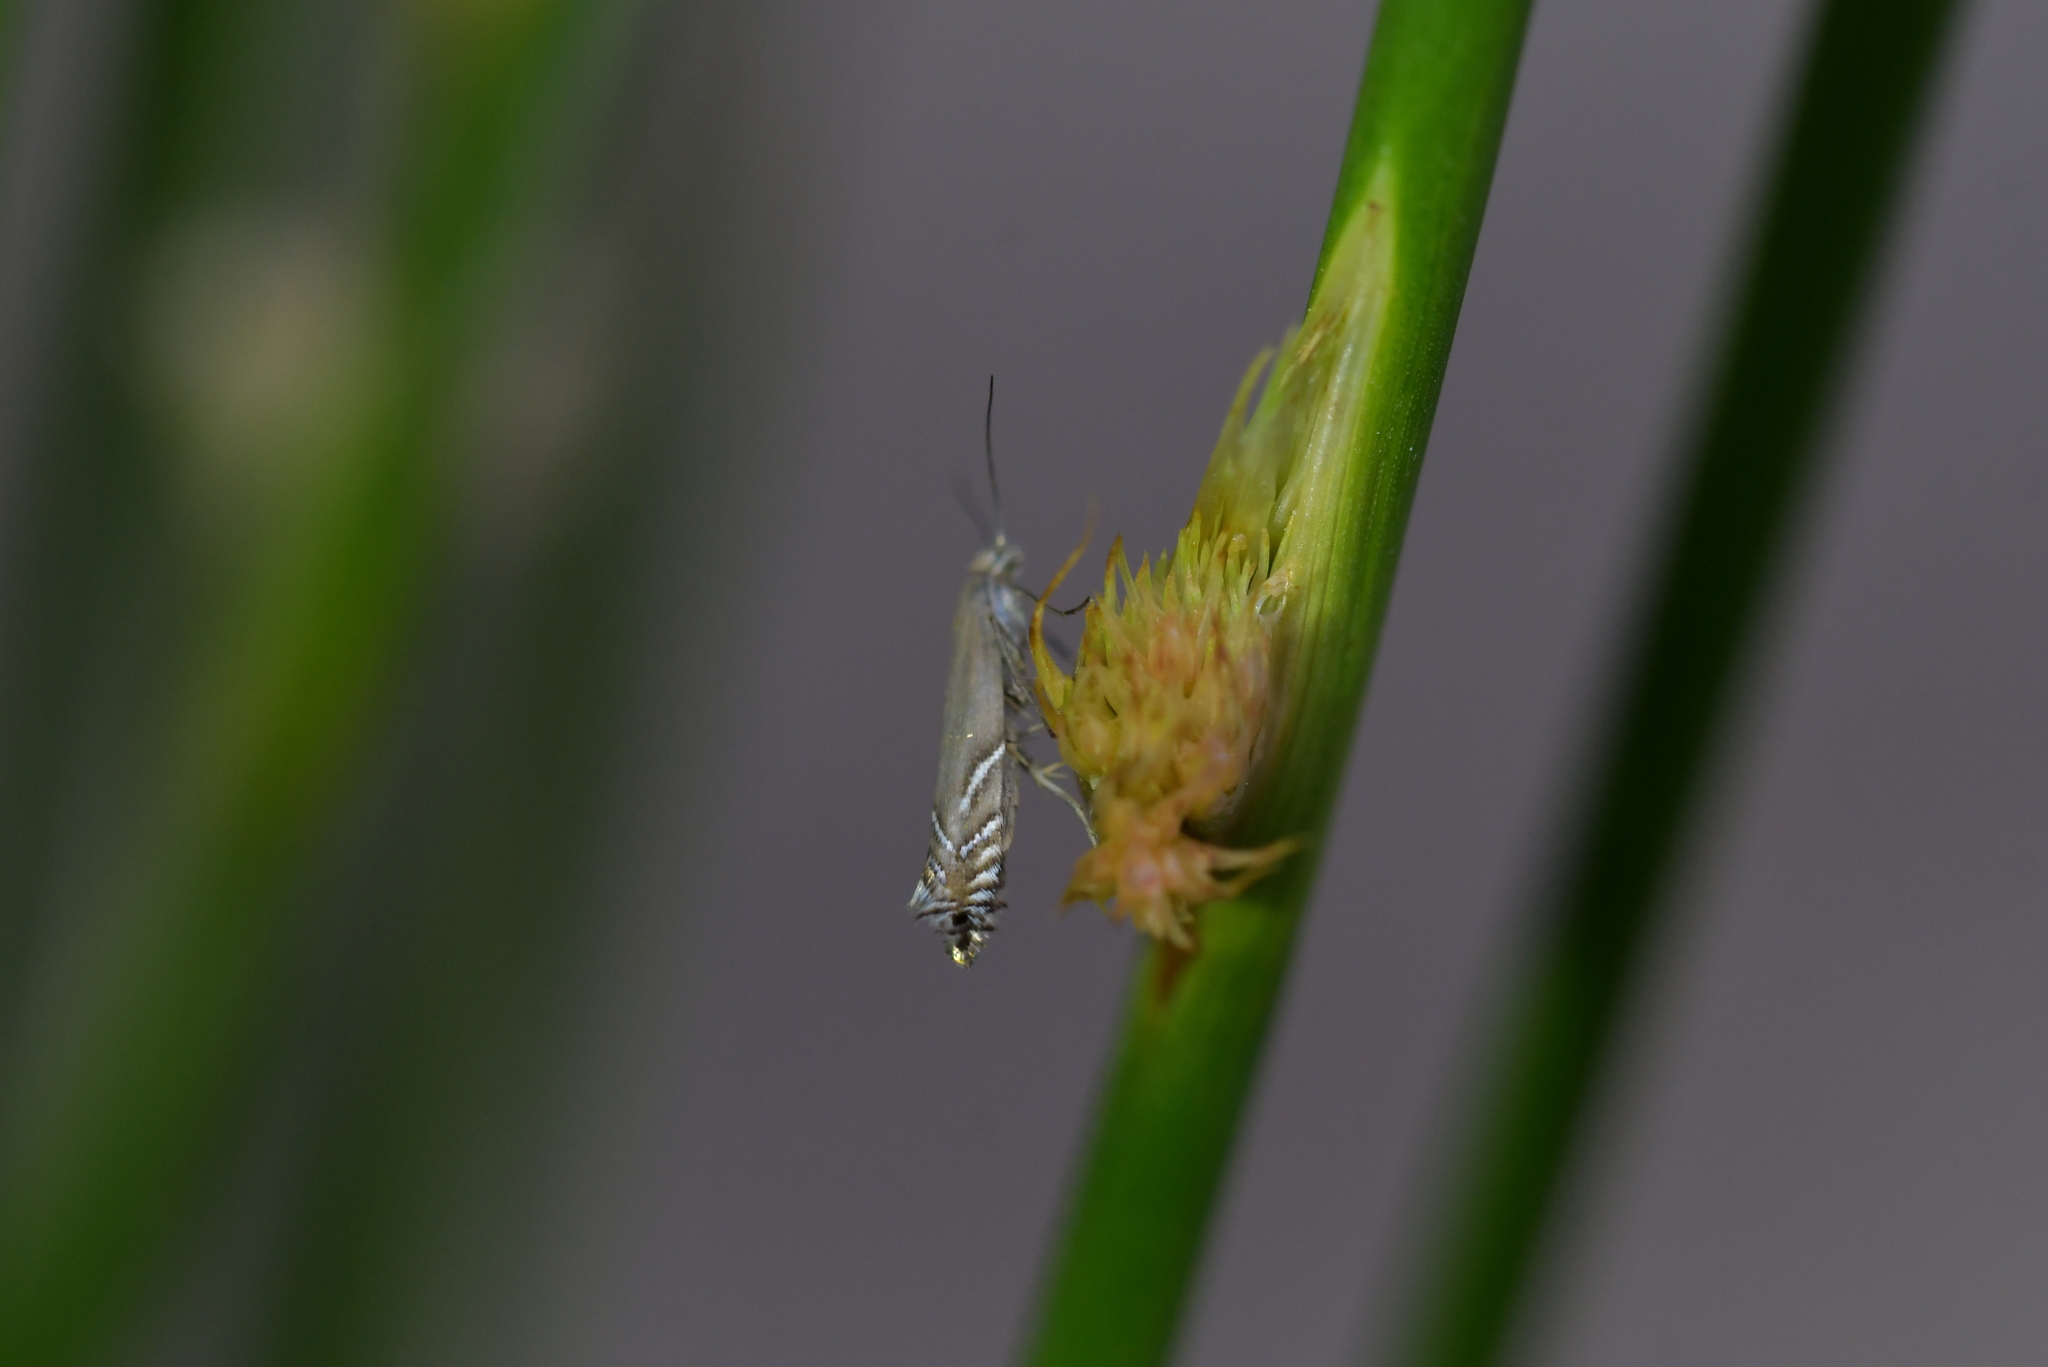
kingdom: Animalia
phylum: Arthropoda
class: Insecta
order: Lepidoptera
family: Glyphipterigidae
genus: Glyphipterix
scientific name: Glyphipterix iocheaera
